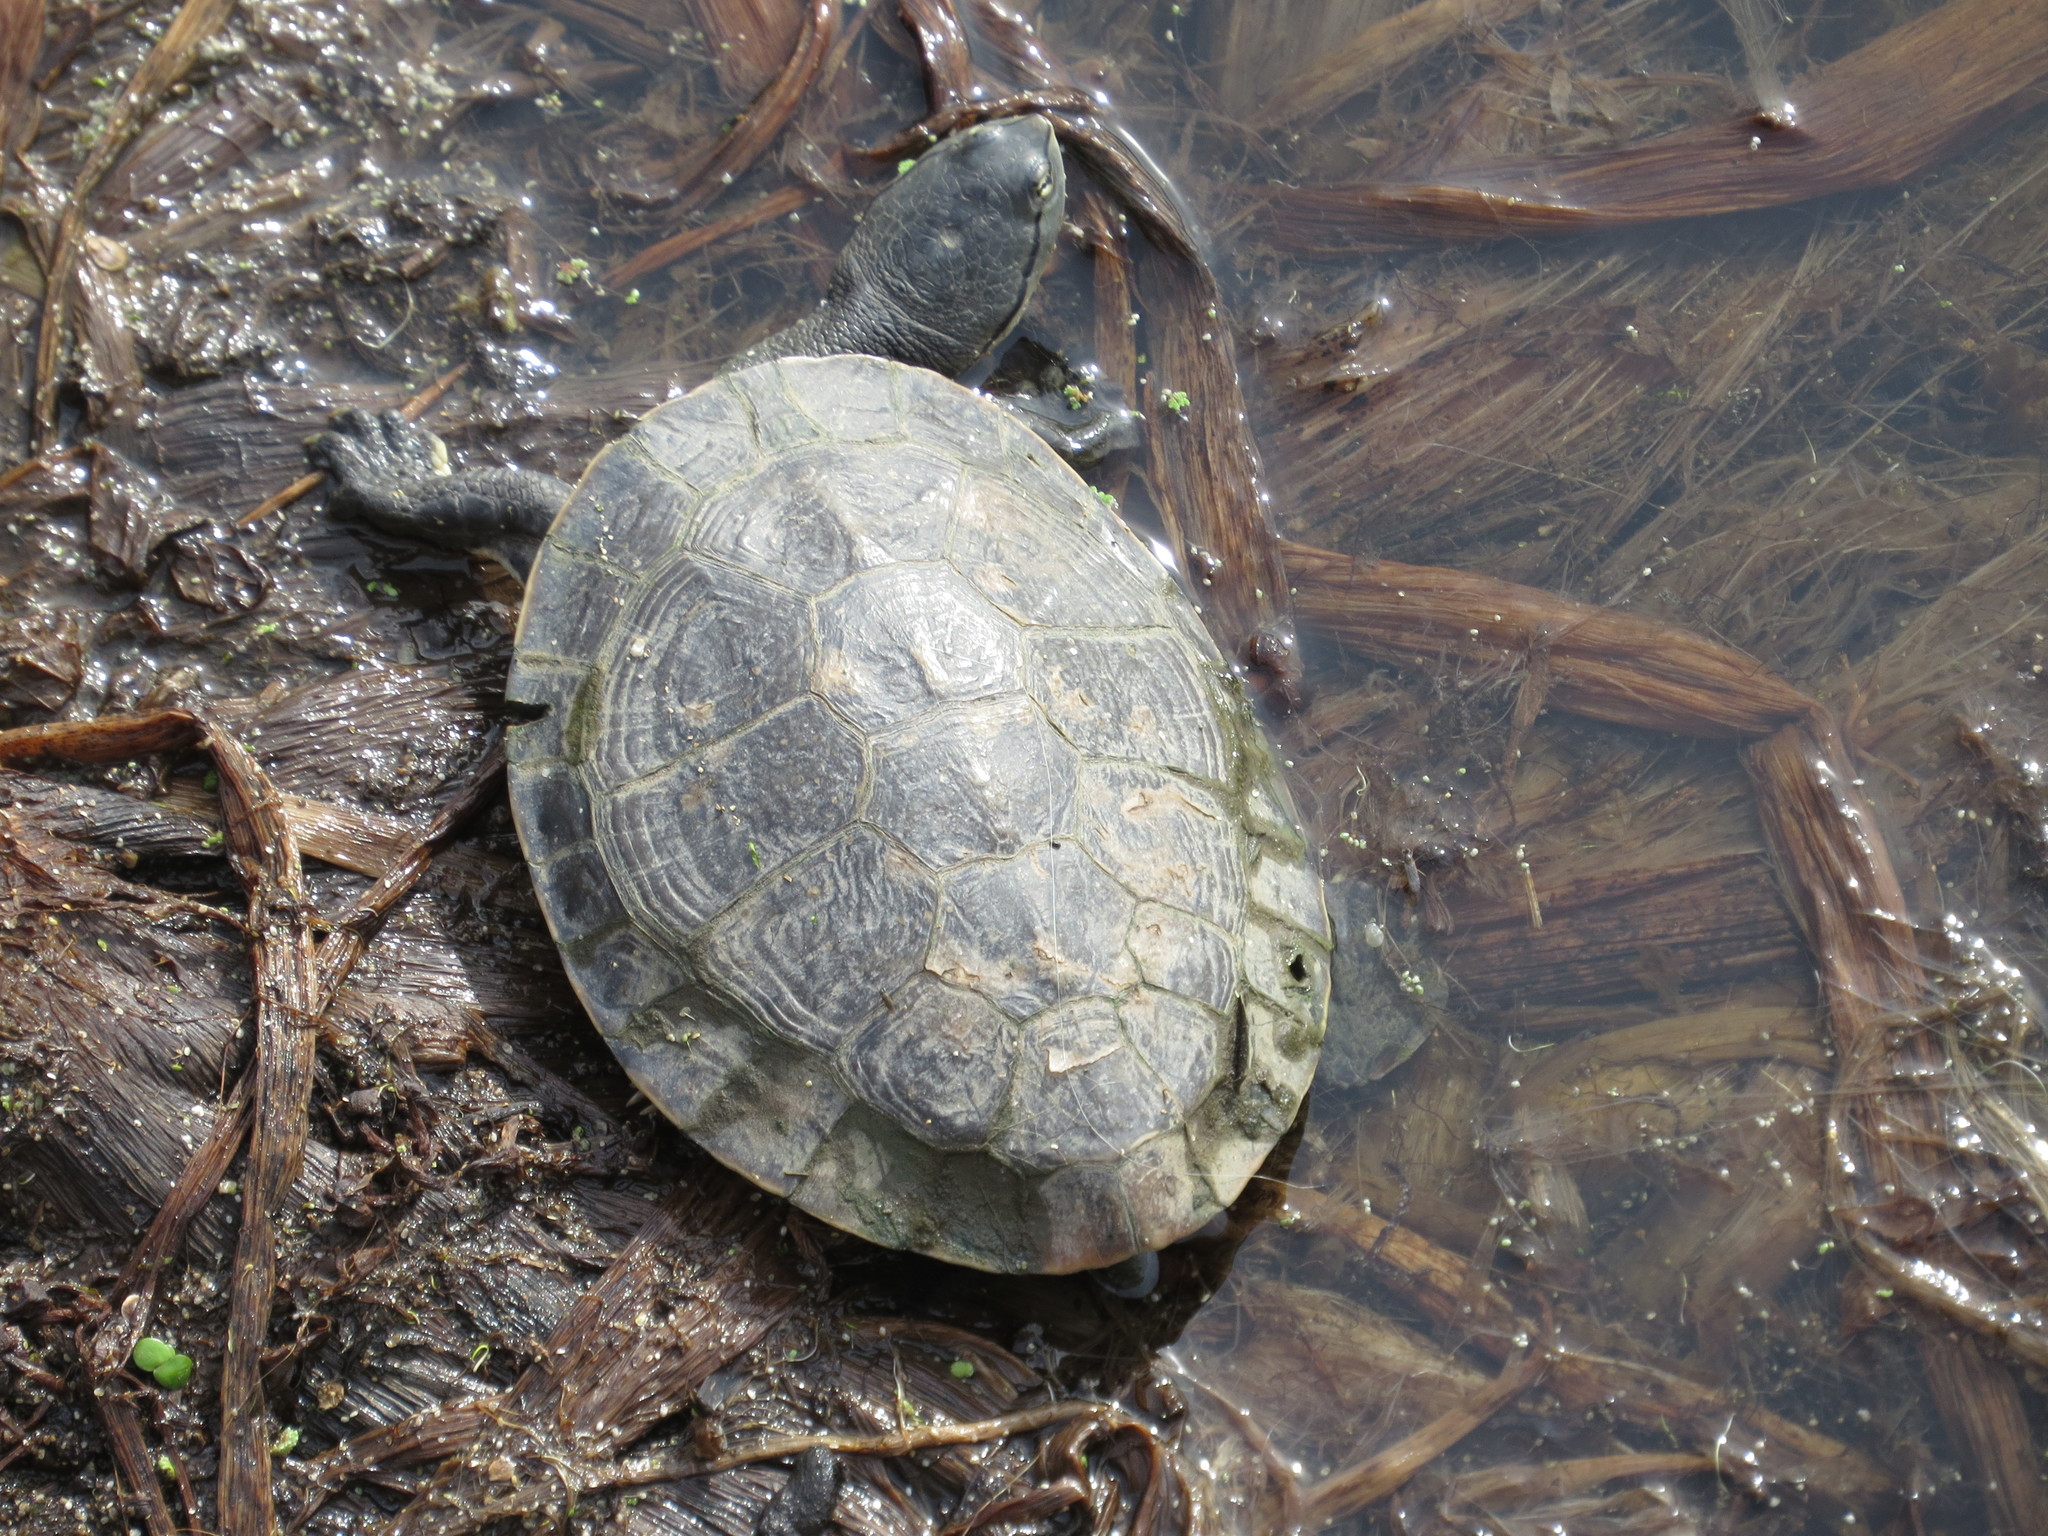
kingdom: Animalia
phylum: Chordata
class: Testudines
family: Chelidae
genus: Phrynops
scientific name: Phrynops hilarii
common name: Side-necked turtle of saint hillaire
